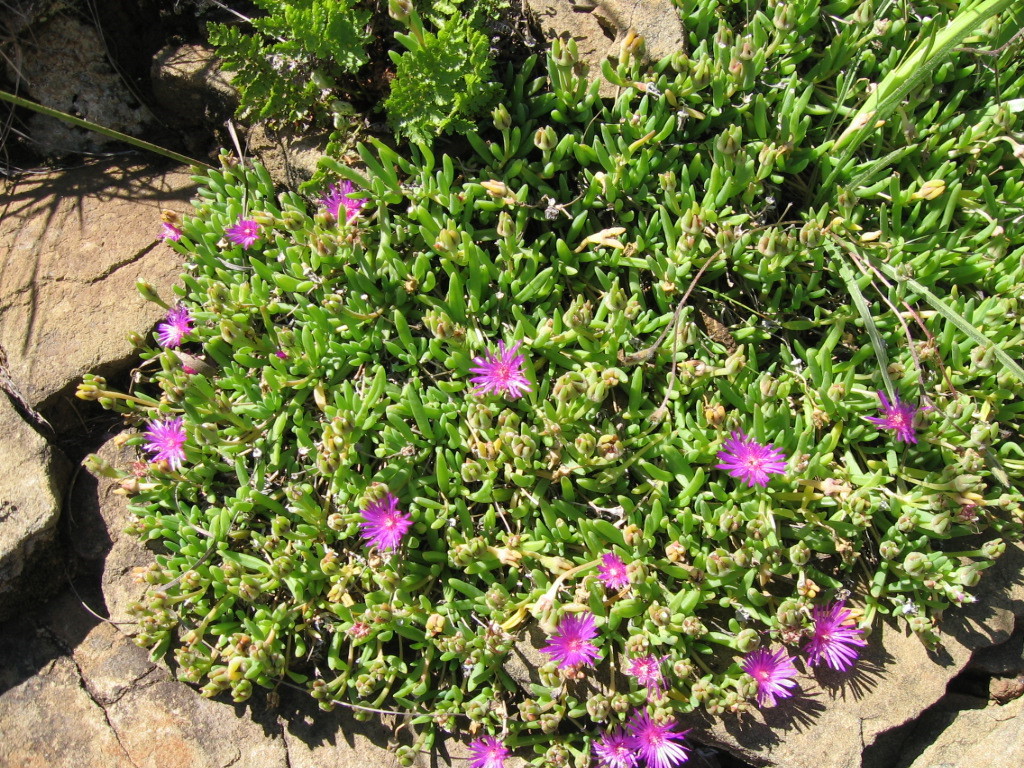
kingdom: Plantae
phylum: Tracheophyta
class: Magnoliopsida
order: Caryophyllales
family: Aizoaceae
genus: Delosperma
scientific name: Delosperma lavisiae
